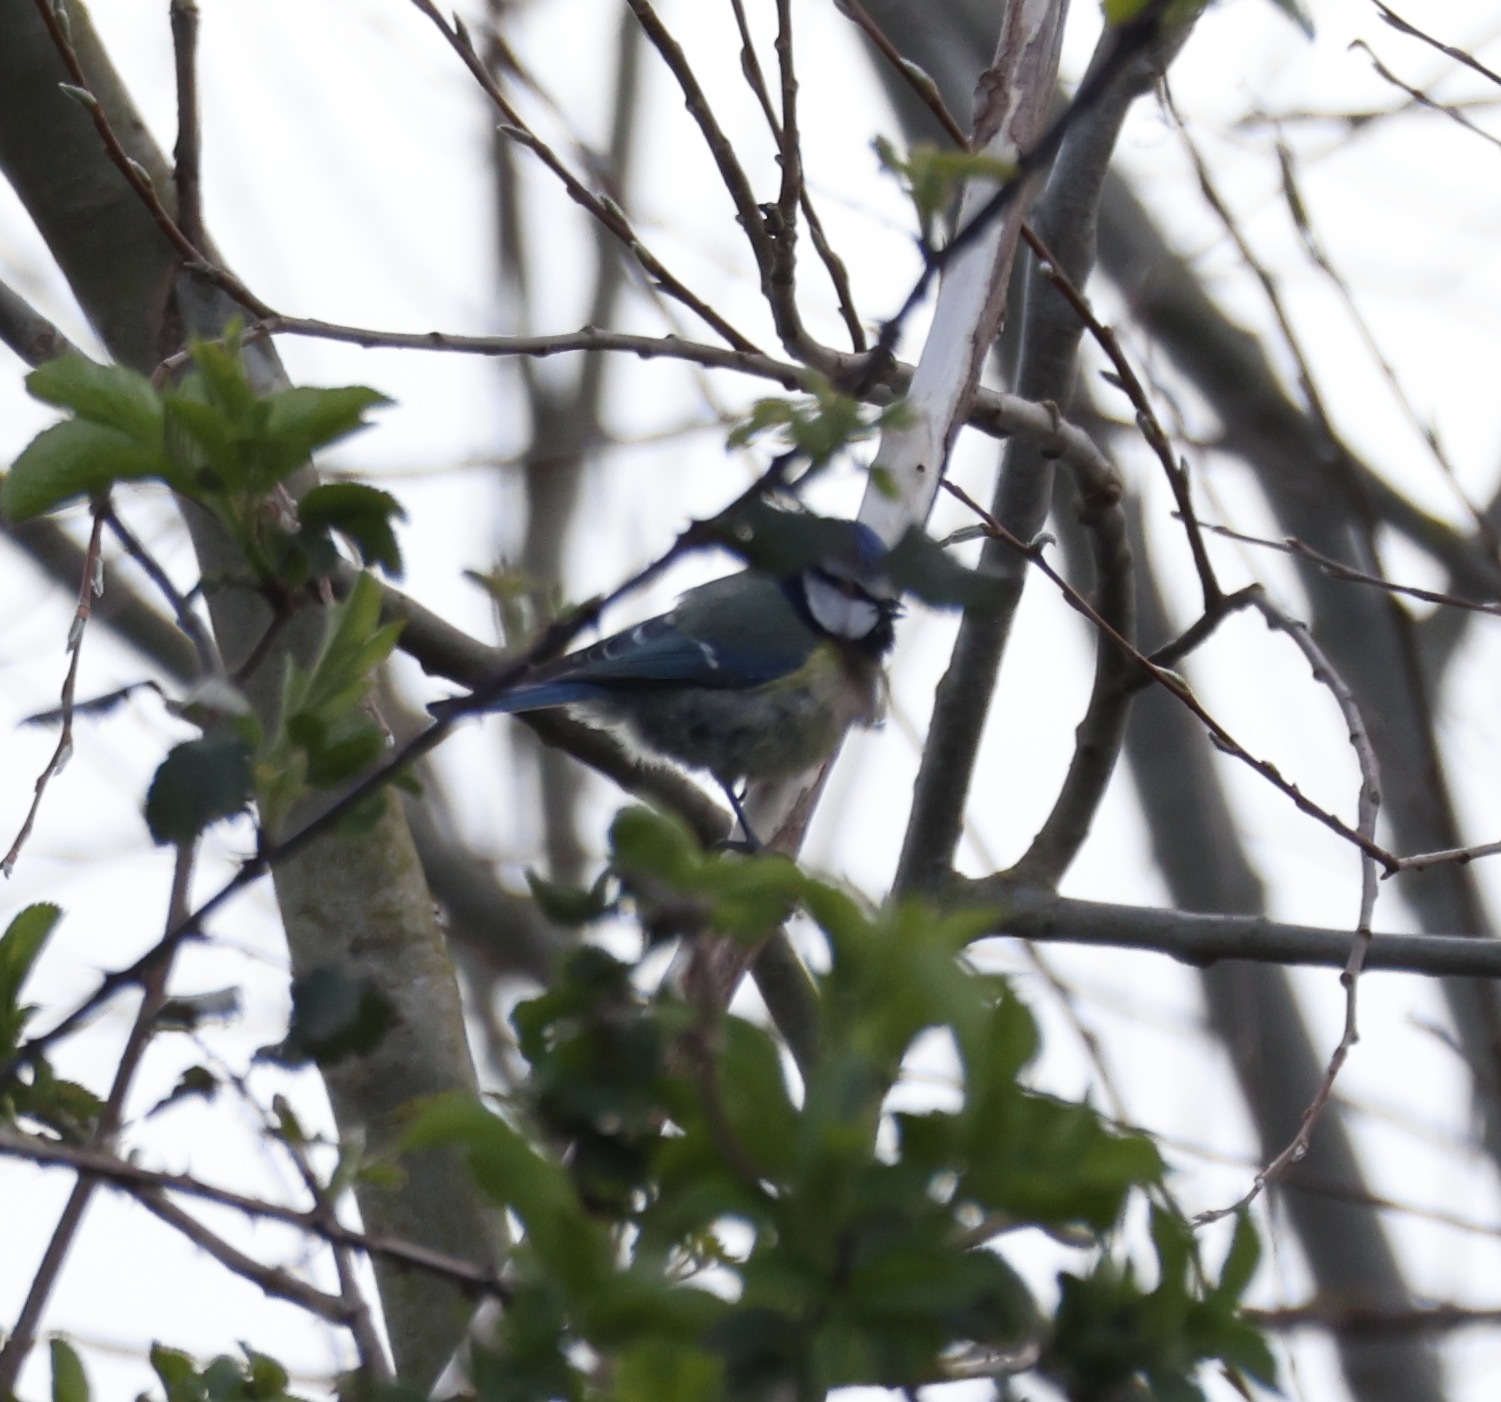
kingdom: Animalia
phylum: Chordata
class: Aves
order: Passeriformes
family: Paridae
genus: Cyanistes
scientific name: Cyanistes caeruleus
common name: Eurasian blue tit
